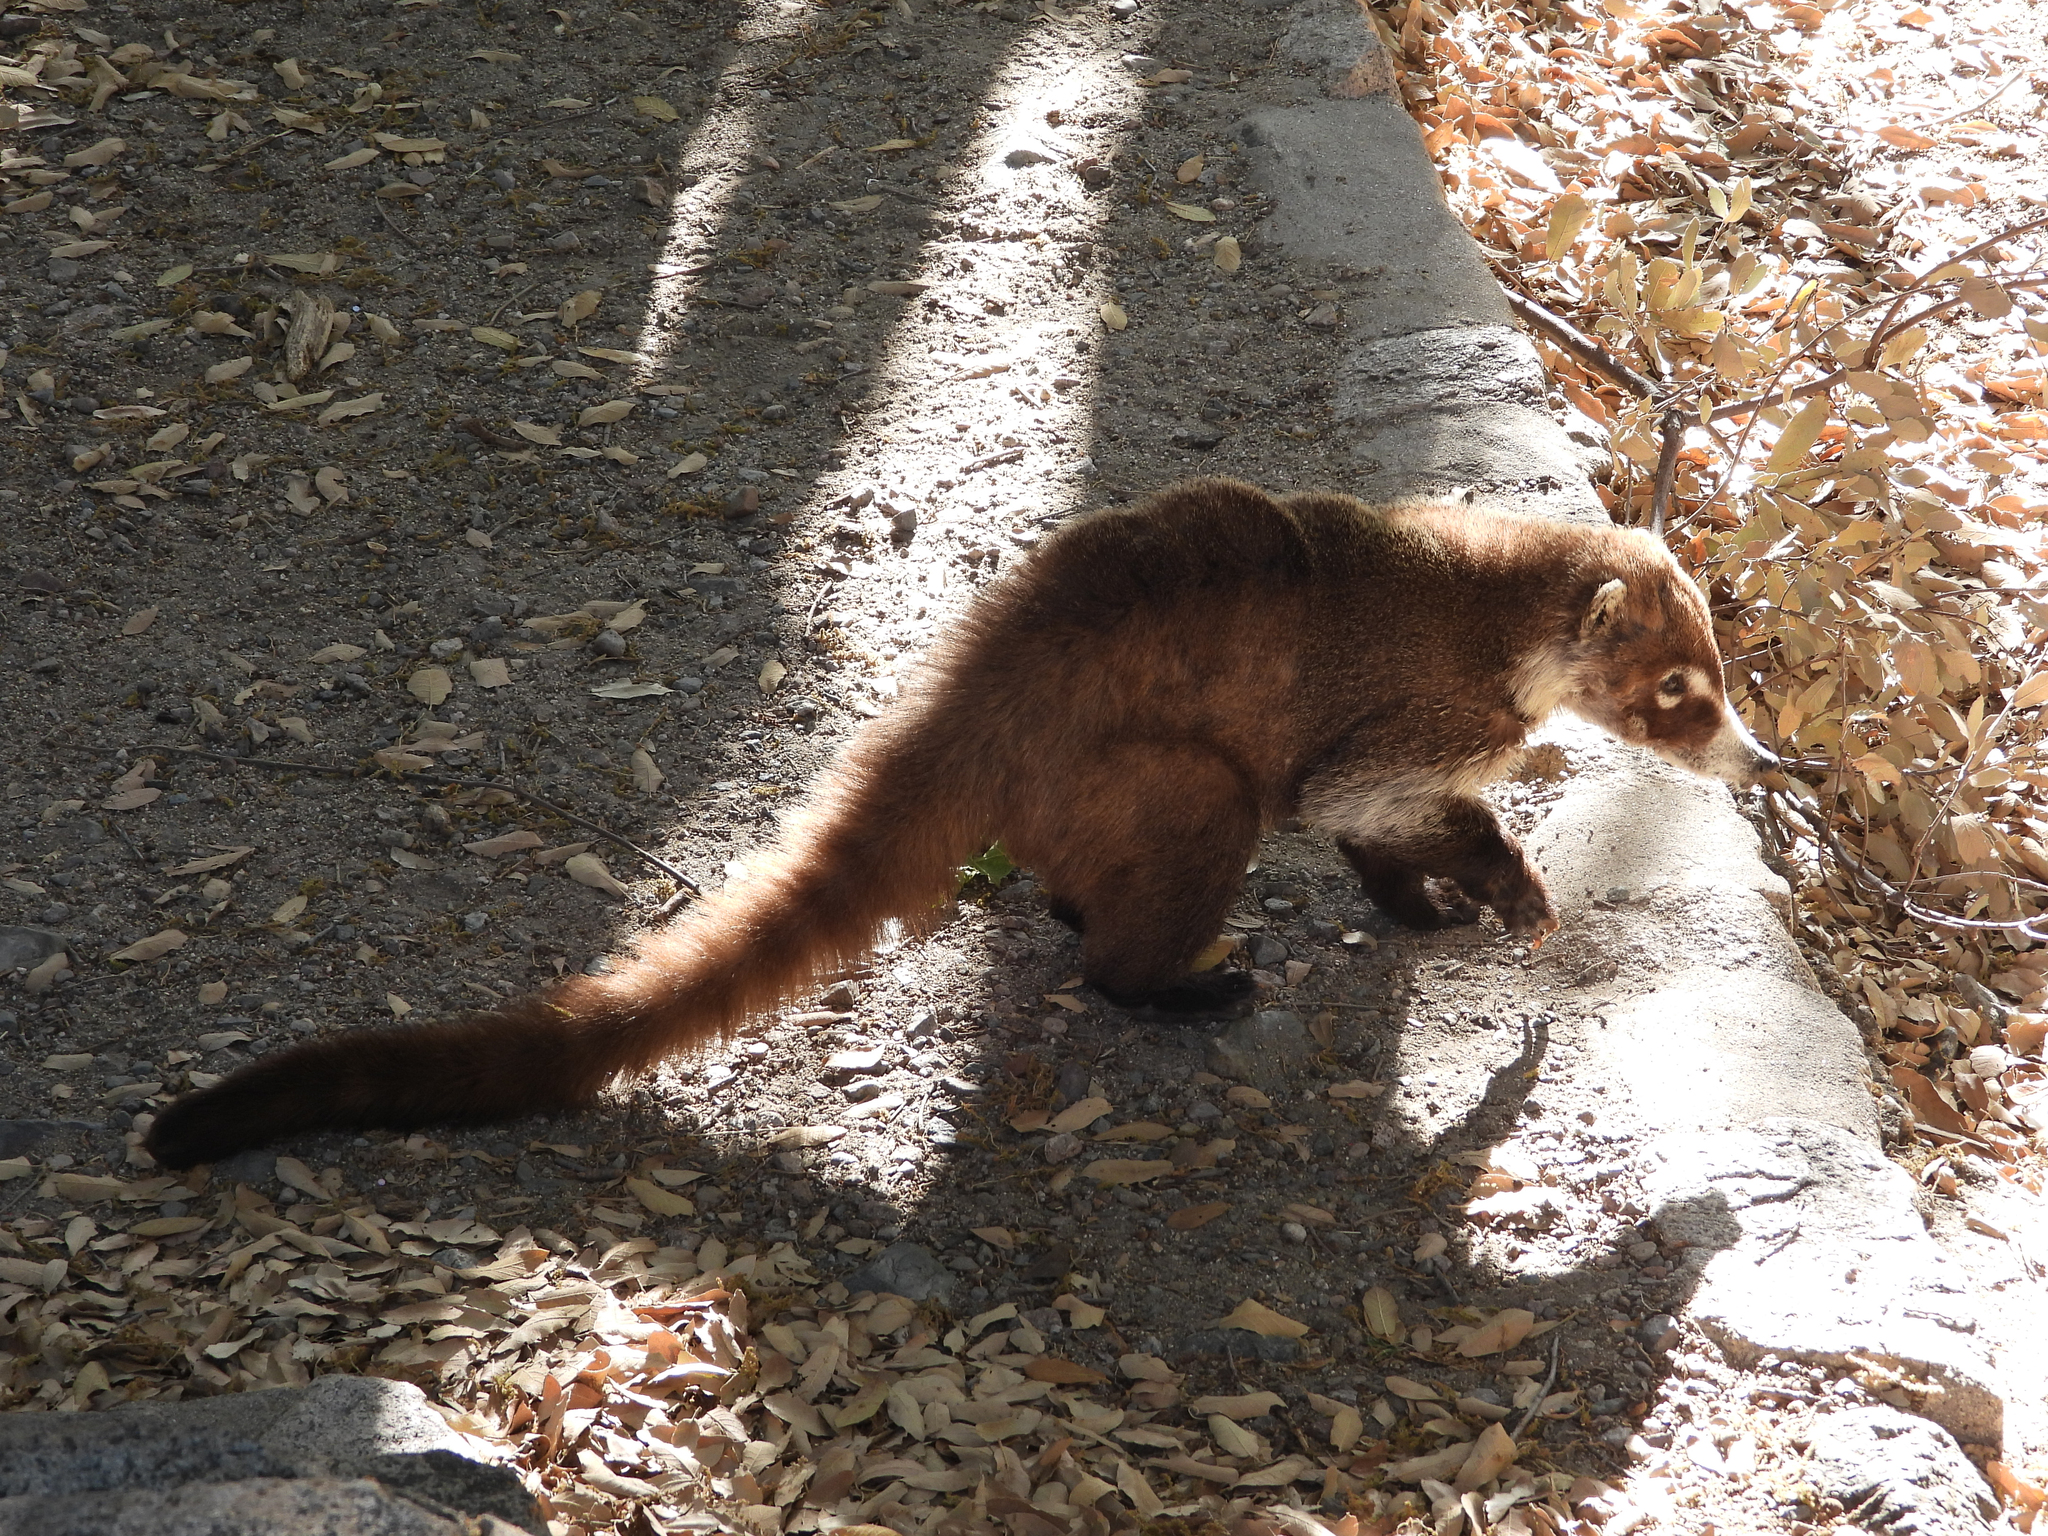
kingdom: Animalia
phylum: Chordata
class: Mammalia
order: Carnivora
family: Procyonidae
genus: Nasua
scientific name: Nasua narica
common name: White-nosed coati
